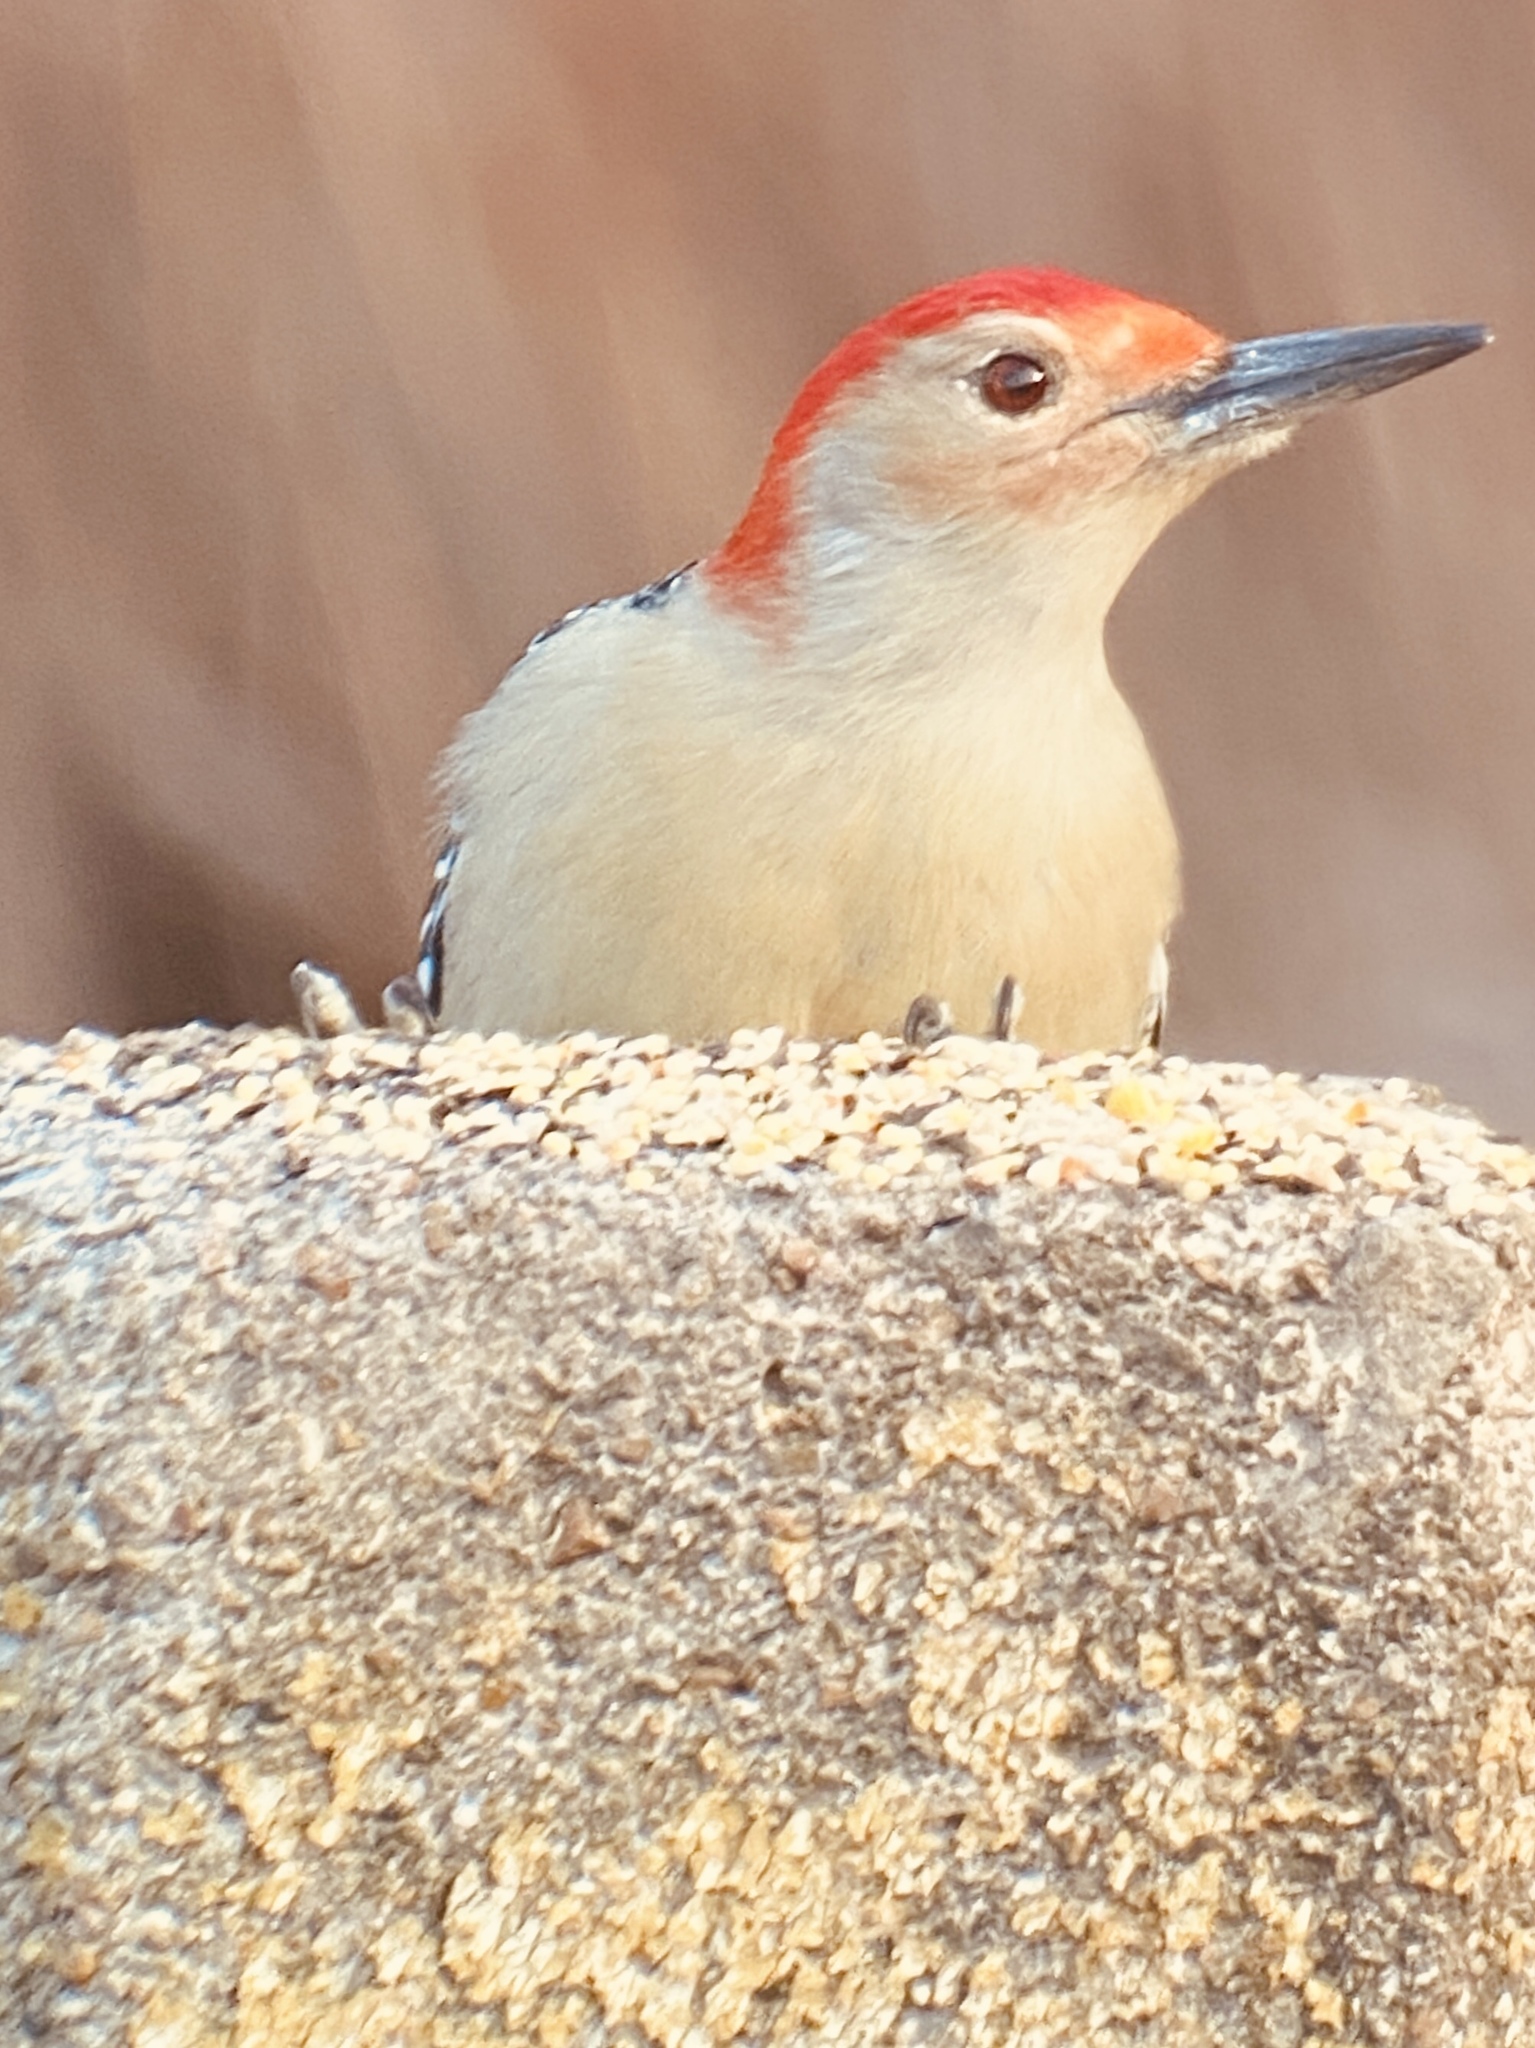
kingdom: Animalia
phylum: Chordata
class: Aves
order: Piciformes
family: Picidae
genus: Melanerpes
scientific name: Melanerpes carolinus
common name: Red-bellied woodpecker
